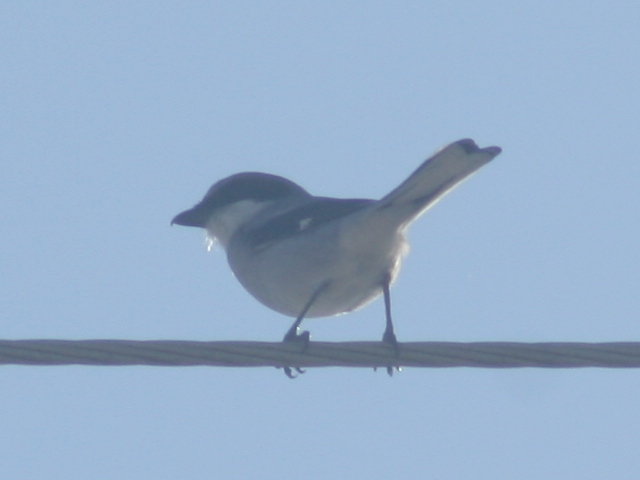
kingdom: Animalia
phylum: Chordata
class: Aves
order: Passeriformes
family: Laniidae
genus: Lanius
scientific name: Lanius ludovicianus
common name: Loggerhead shrike
